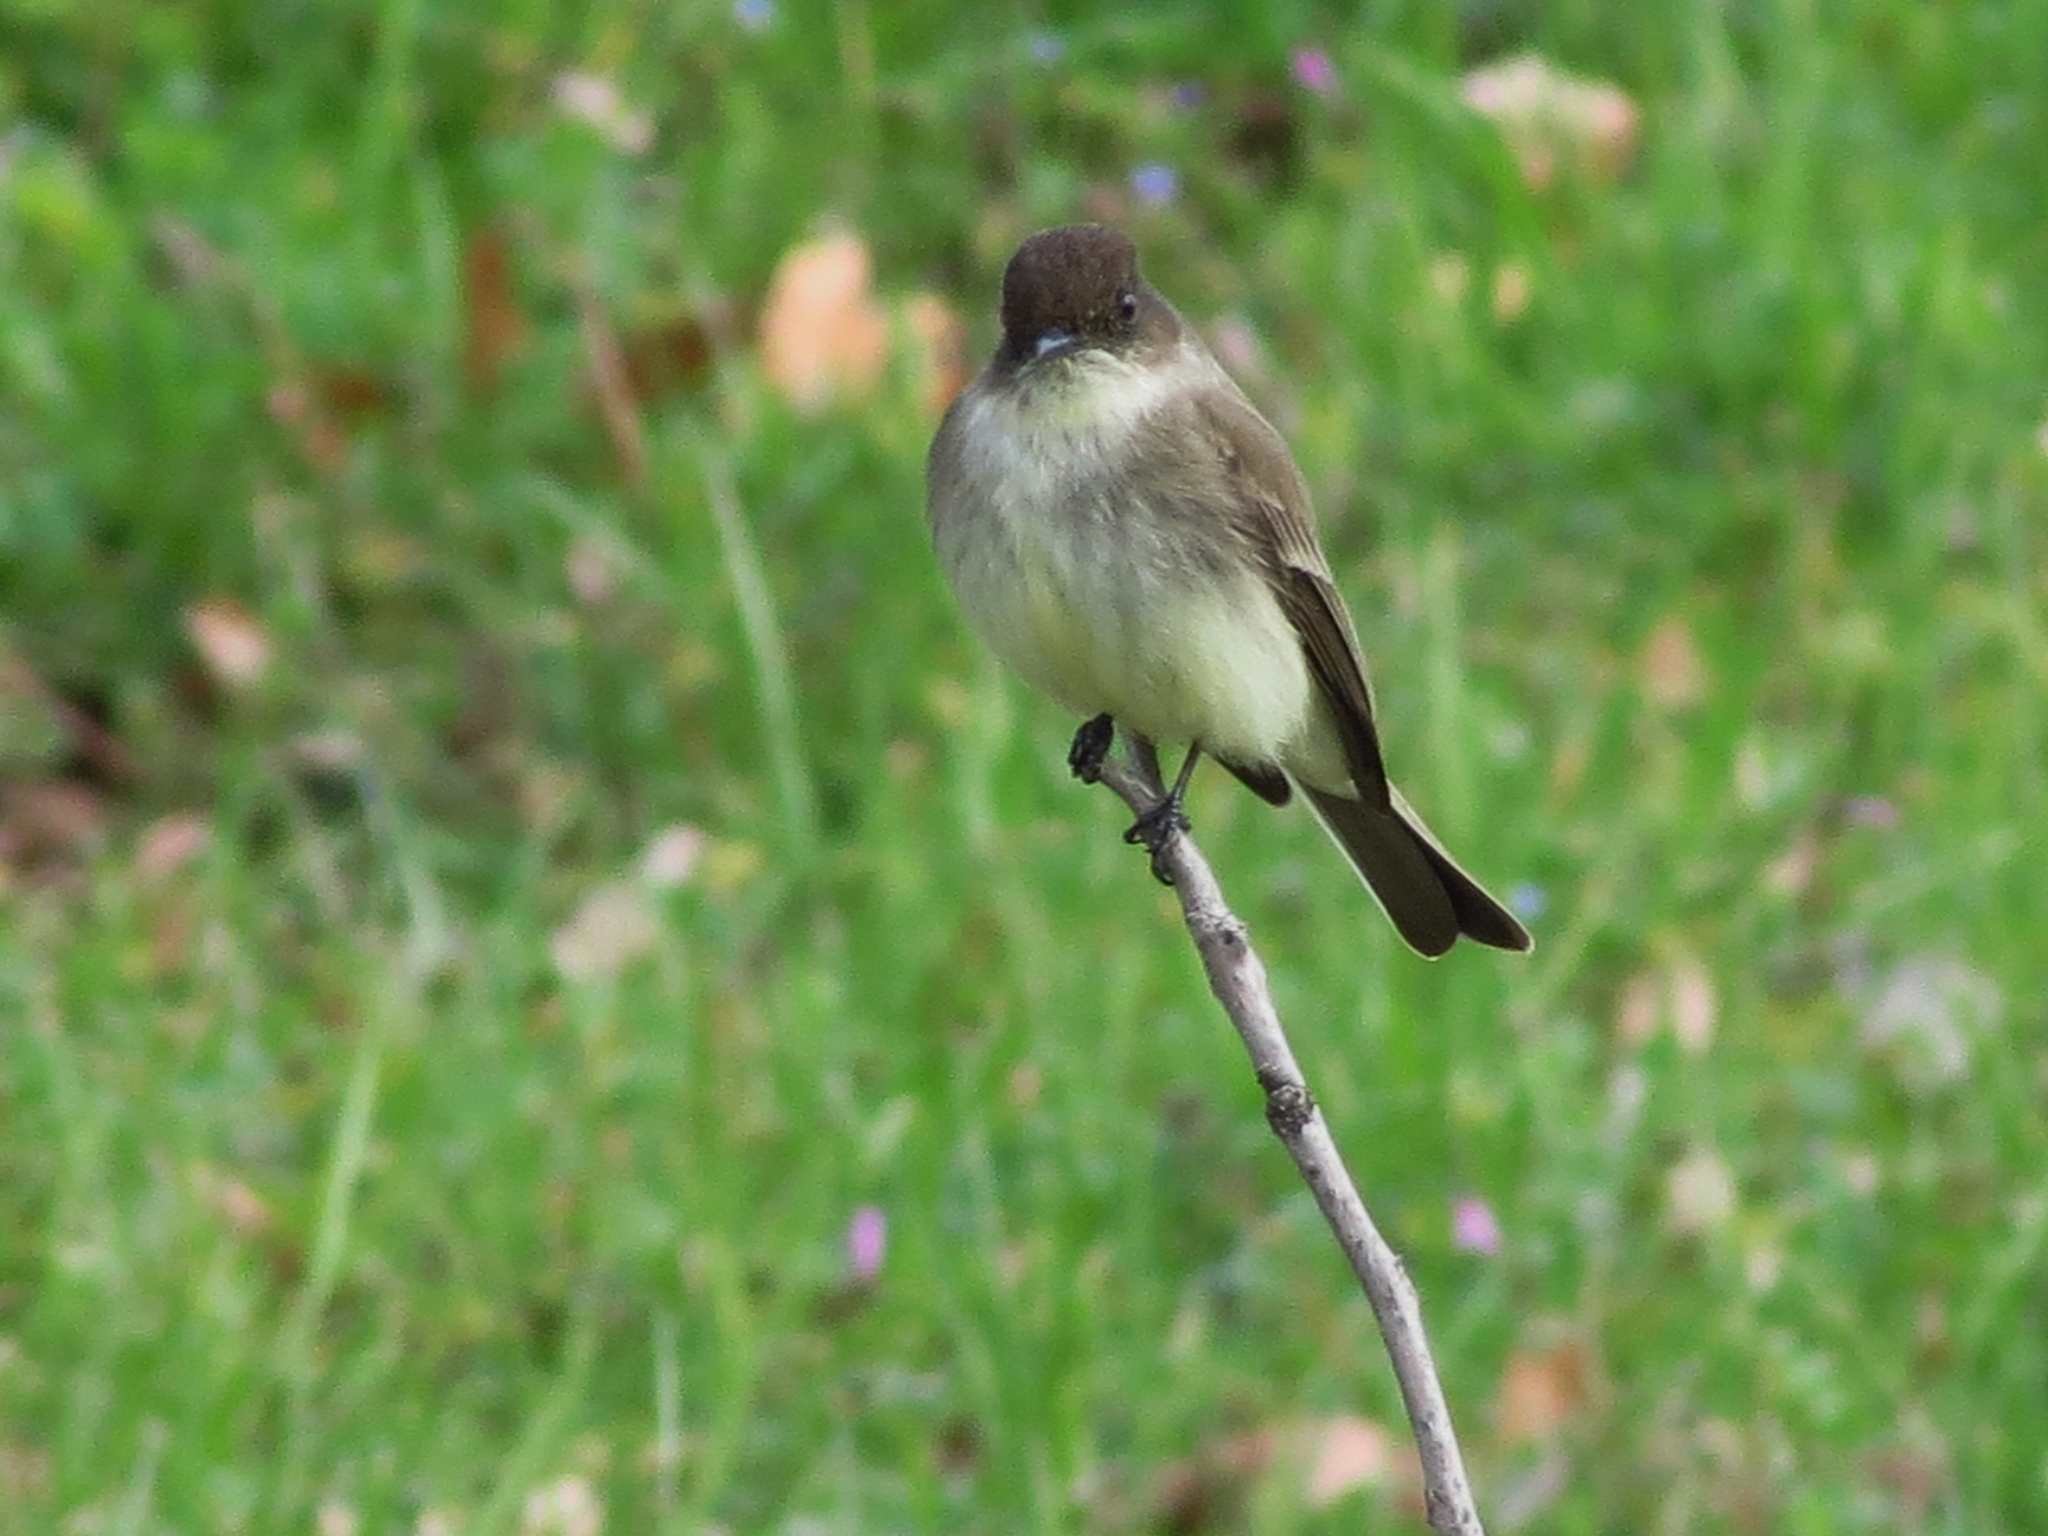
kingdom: Animalia
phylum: Chordata
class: Aves
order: Passeriformes
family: Tyrannidae
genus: Sayornis
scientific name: Sayornis phoebe
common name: Eastern phoebe
